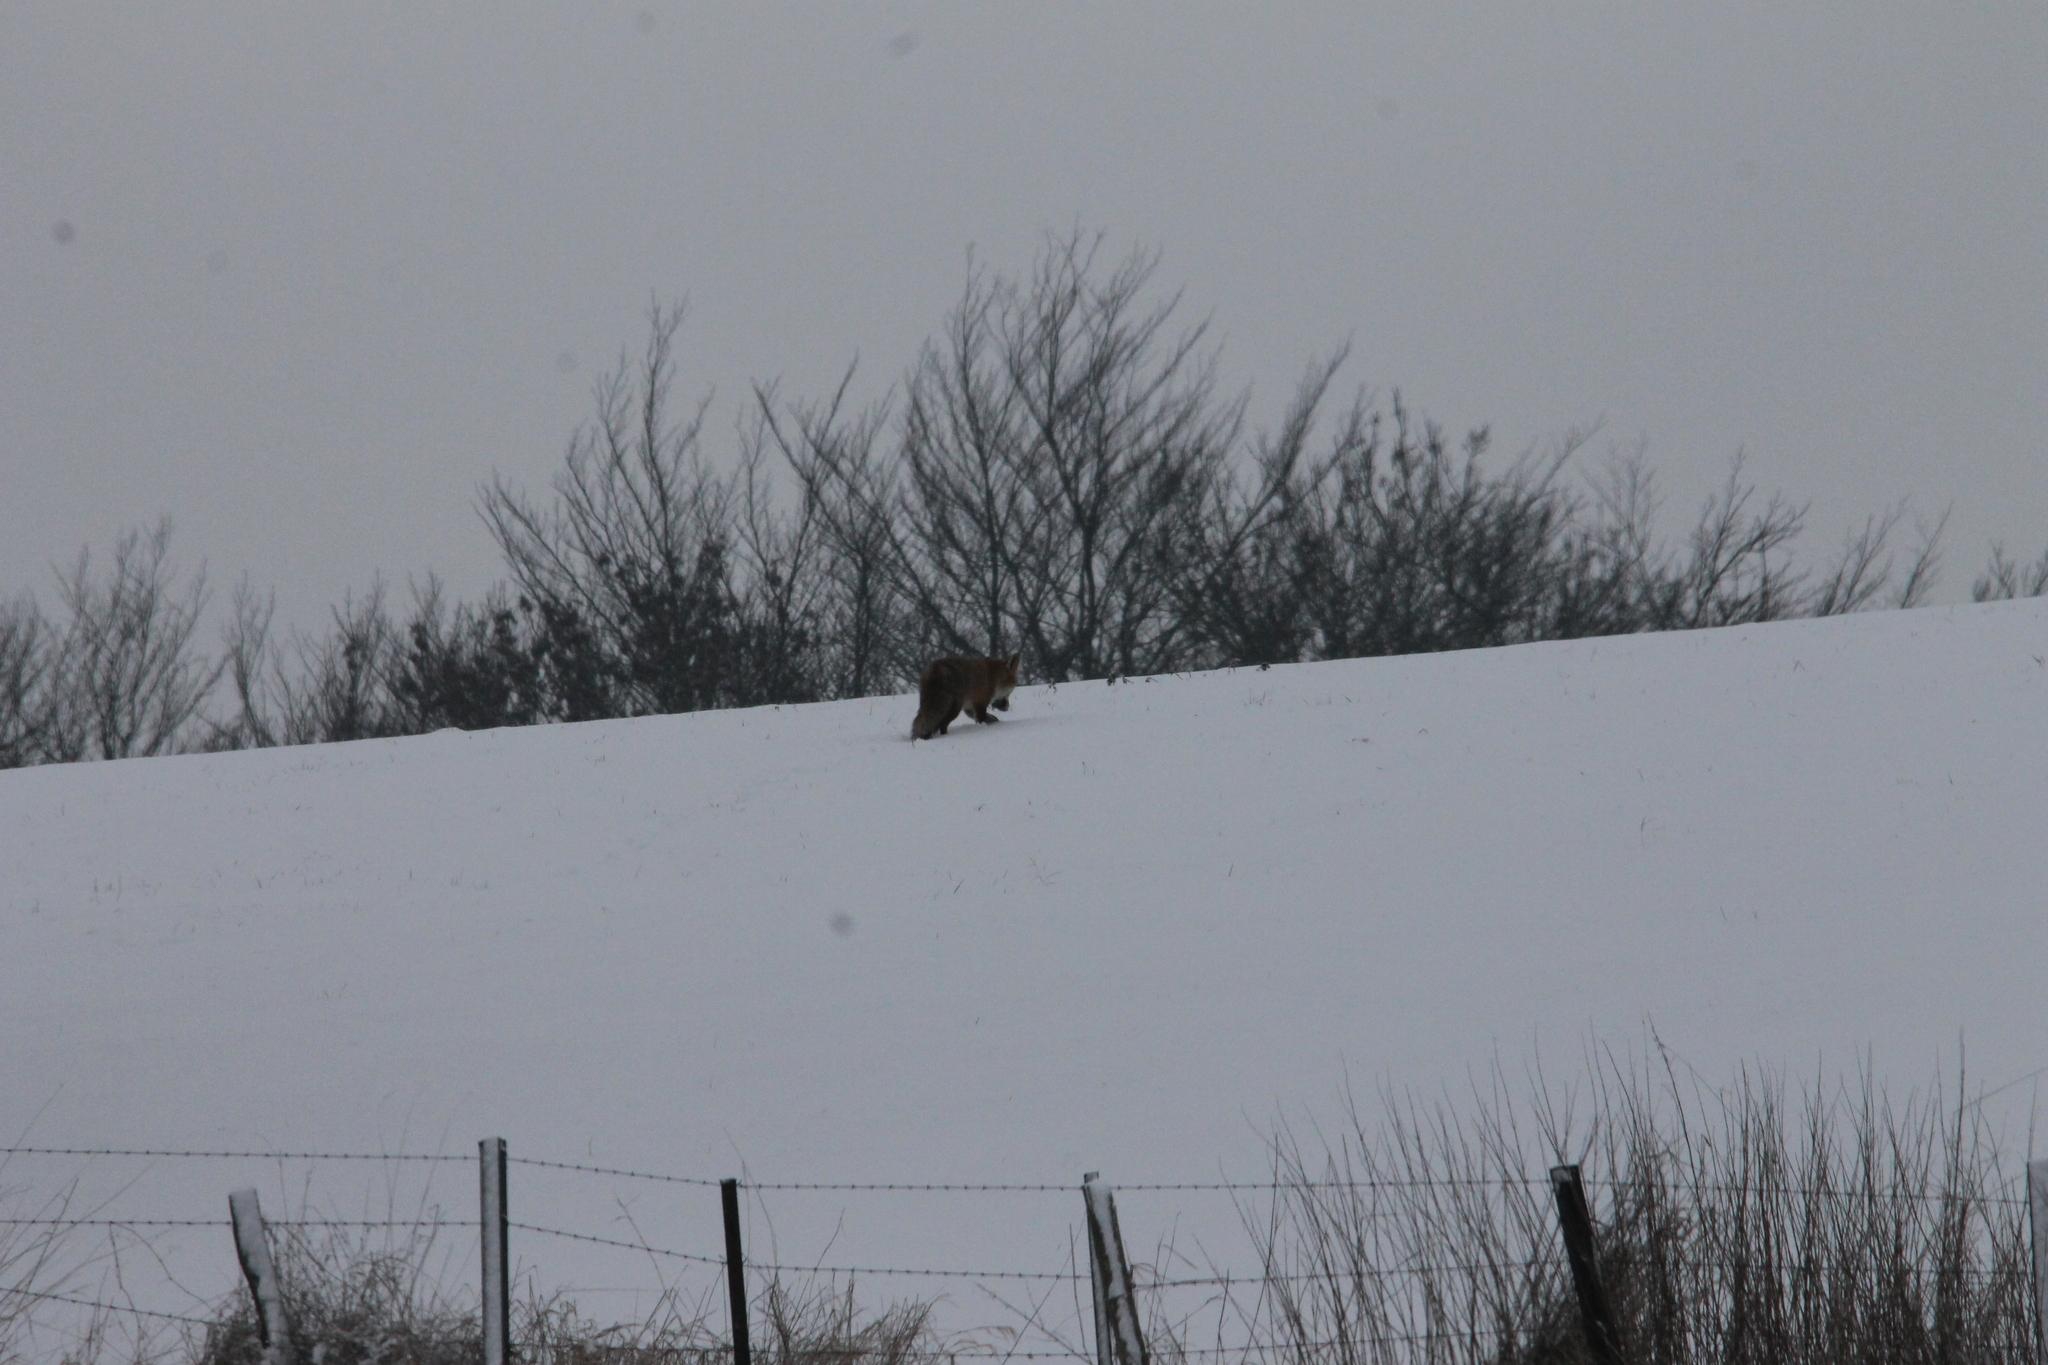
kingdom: Animalia
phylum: Chordata
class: Mammalia
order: Carnivora
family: Canidae
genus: Vulpes
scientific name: Vulpes vulpes
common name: Red fox
